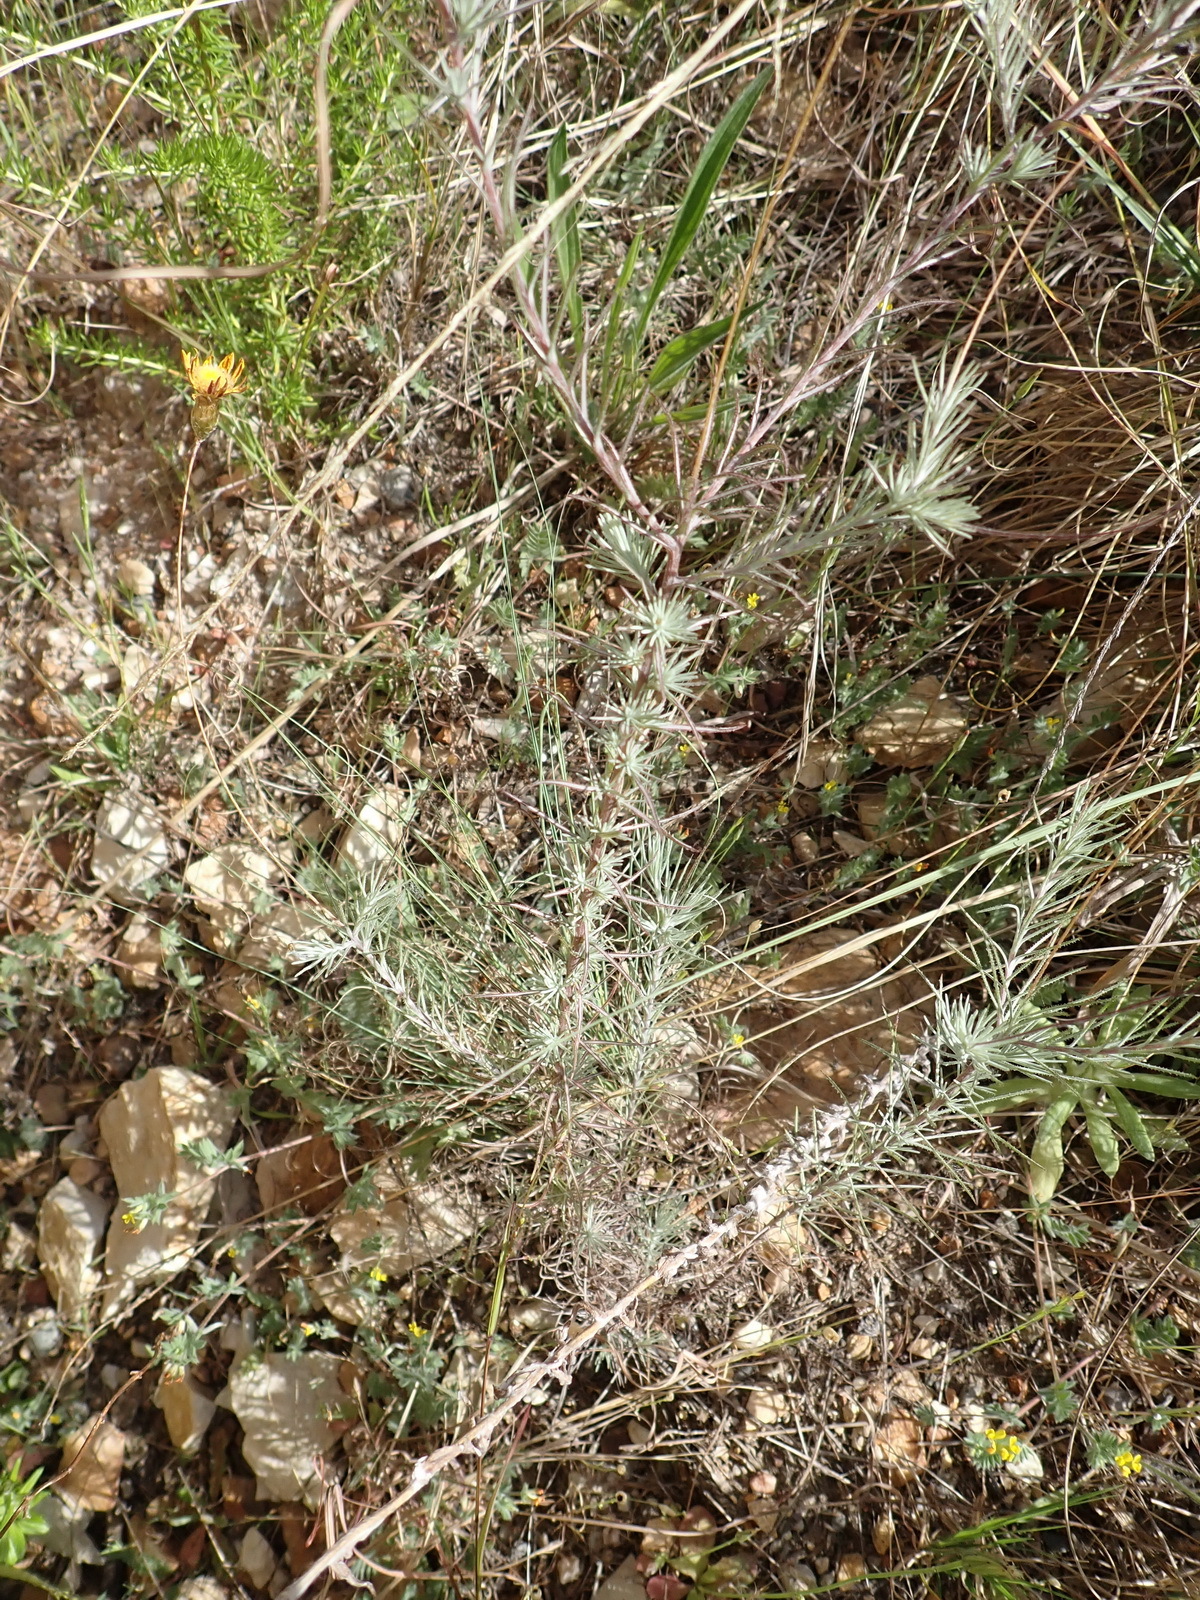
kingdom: Plantae
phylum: Tracheophyta
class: Magnoliopsida
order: Asterales
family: Asteraceae
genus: Leysera
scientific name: Leysera gnaphalodes
